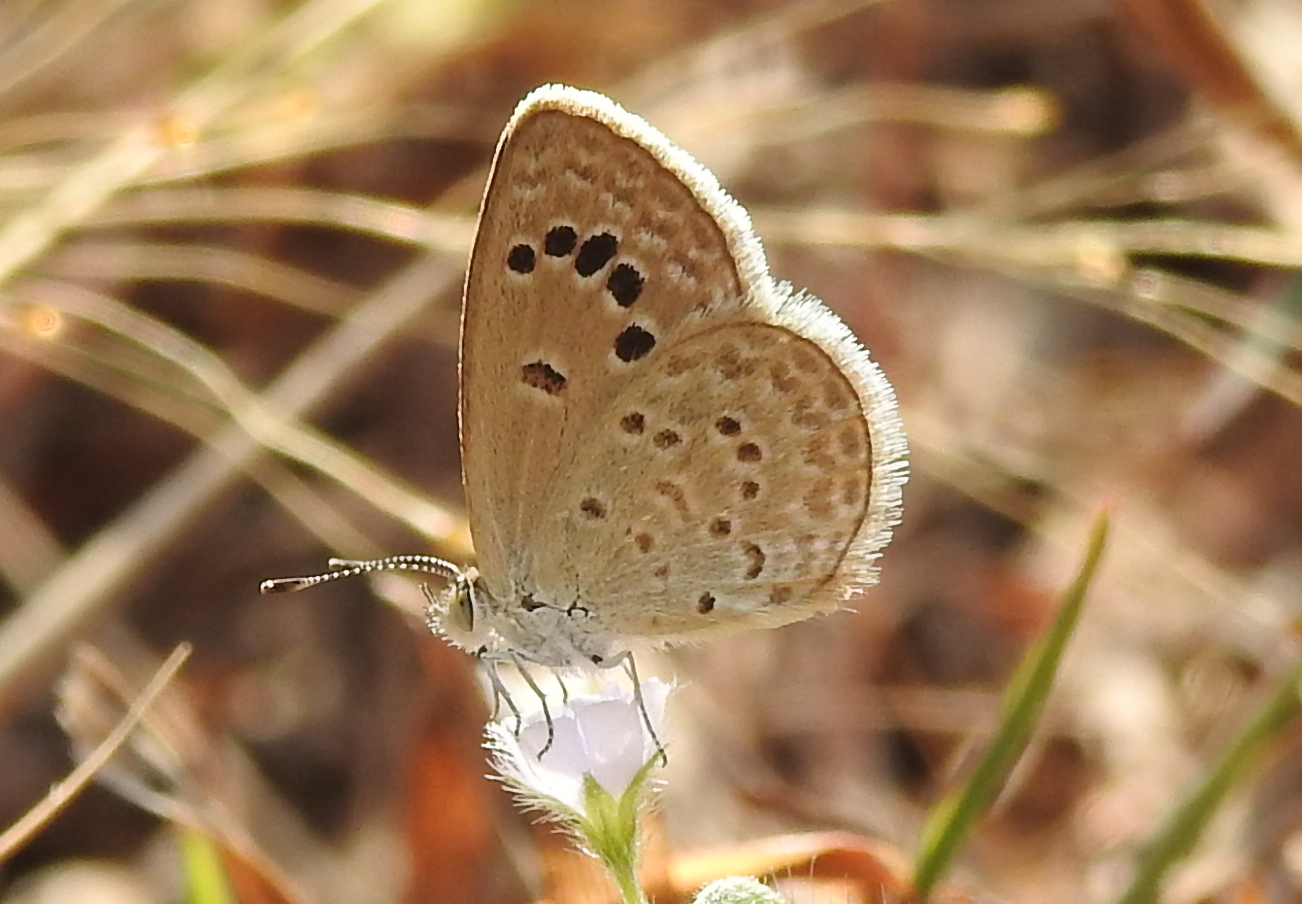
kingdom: Animalia
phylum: Arthropoda
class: Insecta
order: Lepidoptera
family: Lycaenidae
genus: Zizina
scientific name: Zizina otis
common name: Lesser grass blue
